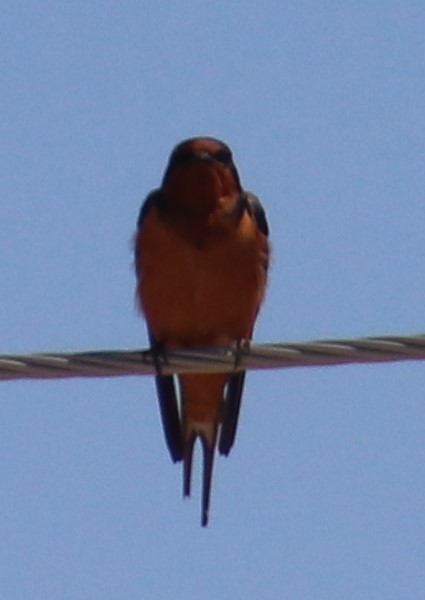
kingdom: Animalia
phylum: Chordata
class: Aves
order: Passeriformes
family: Hirundinidae
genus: Hirundo
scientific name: Hirundo rustica
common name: Barn swallow
